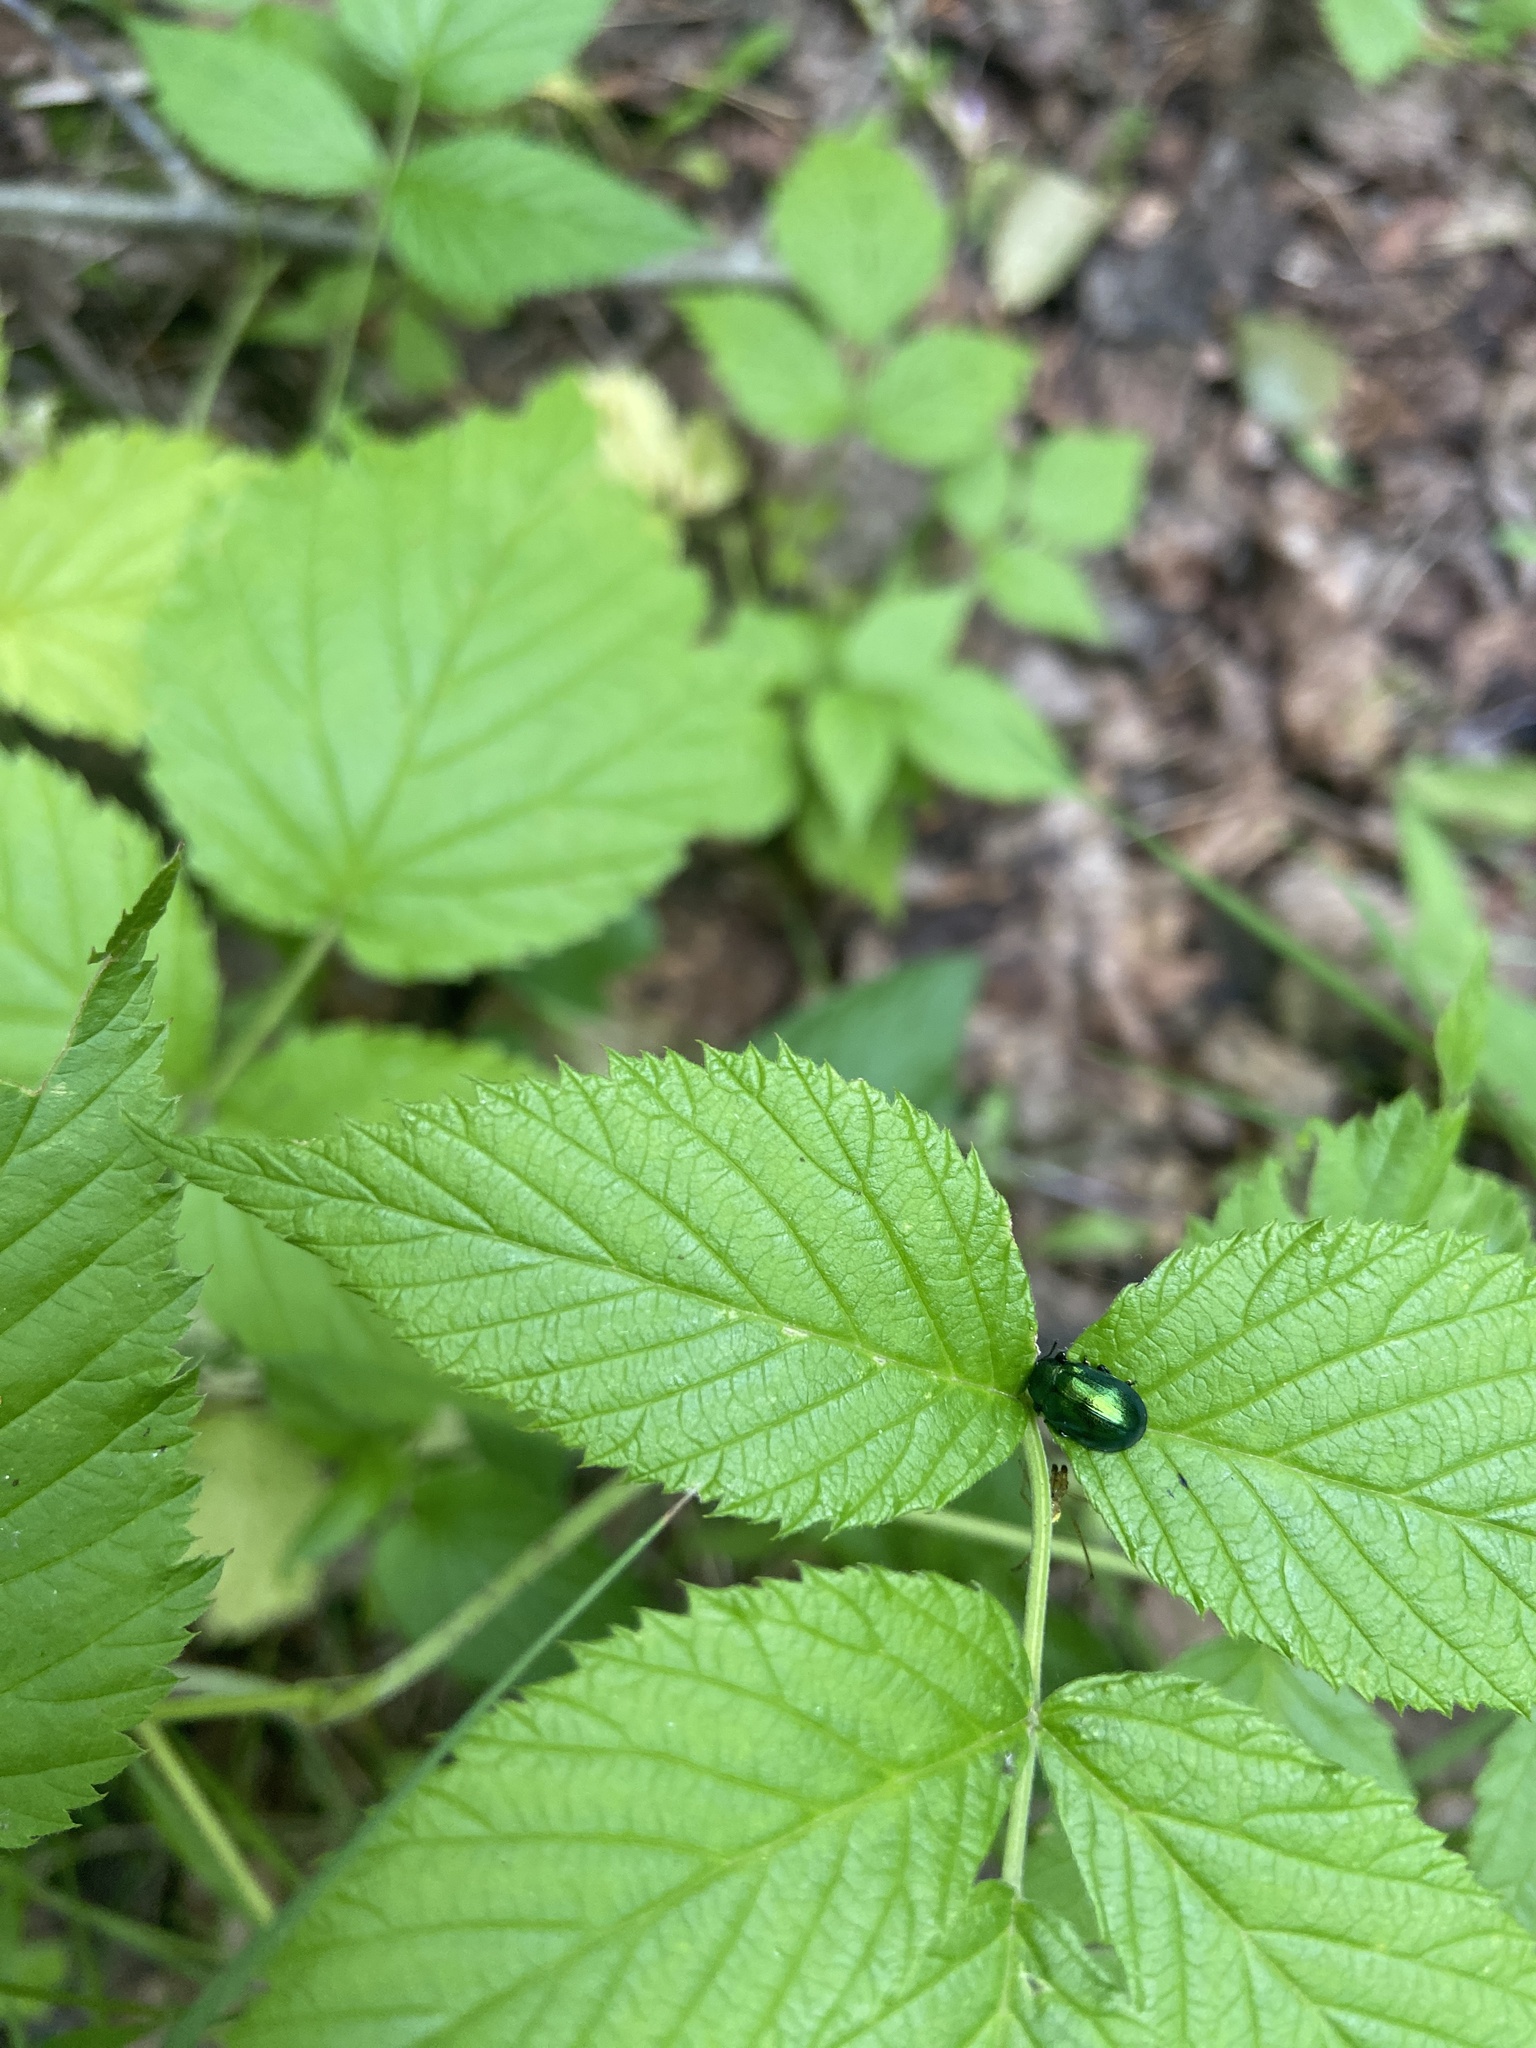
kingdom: Animalia
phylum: Arthropoda
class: Insecta
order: Coleoptera
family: Chrysomelidae
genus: Plagiosterna
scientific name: Plagiosterna aenea
